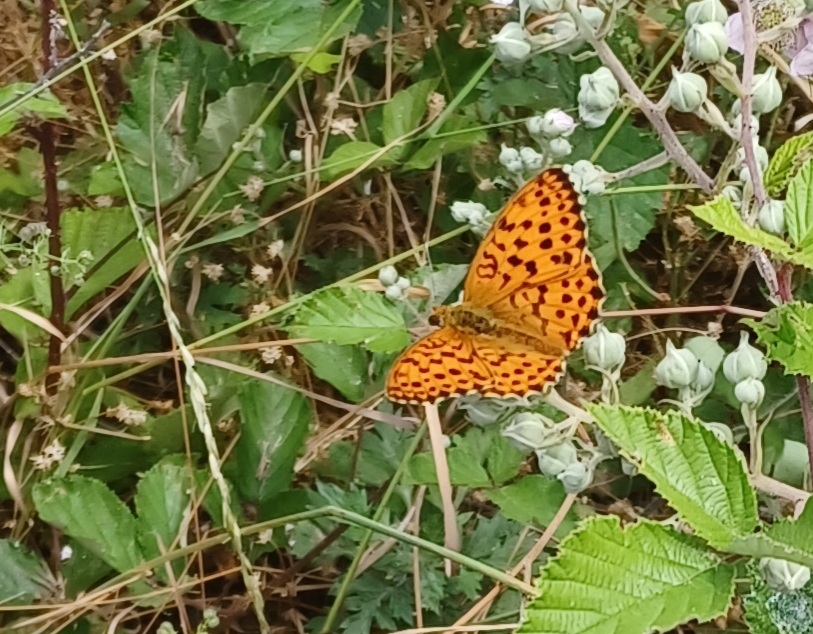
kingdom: Animalia
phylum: Arthropoda
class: Insecta
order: Lepidoptera
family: Nymphalidae
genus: Brenthis
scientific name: Brenthis daphne
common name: Marbled fritillary
